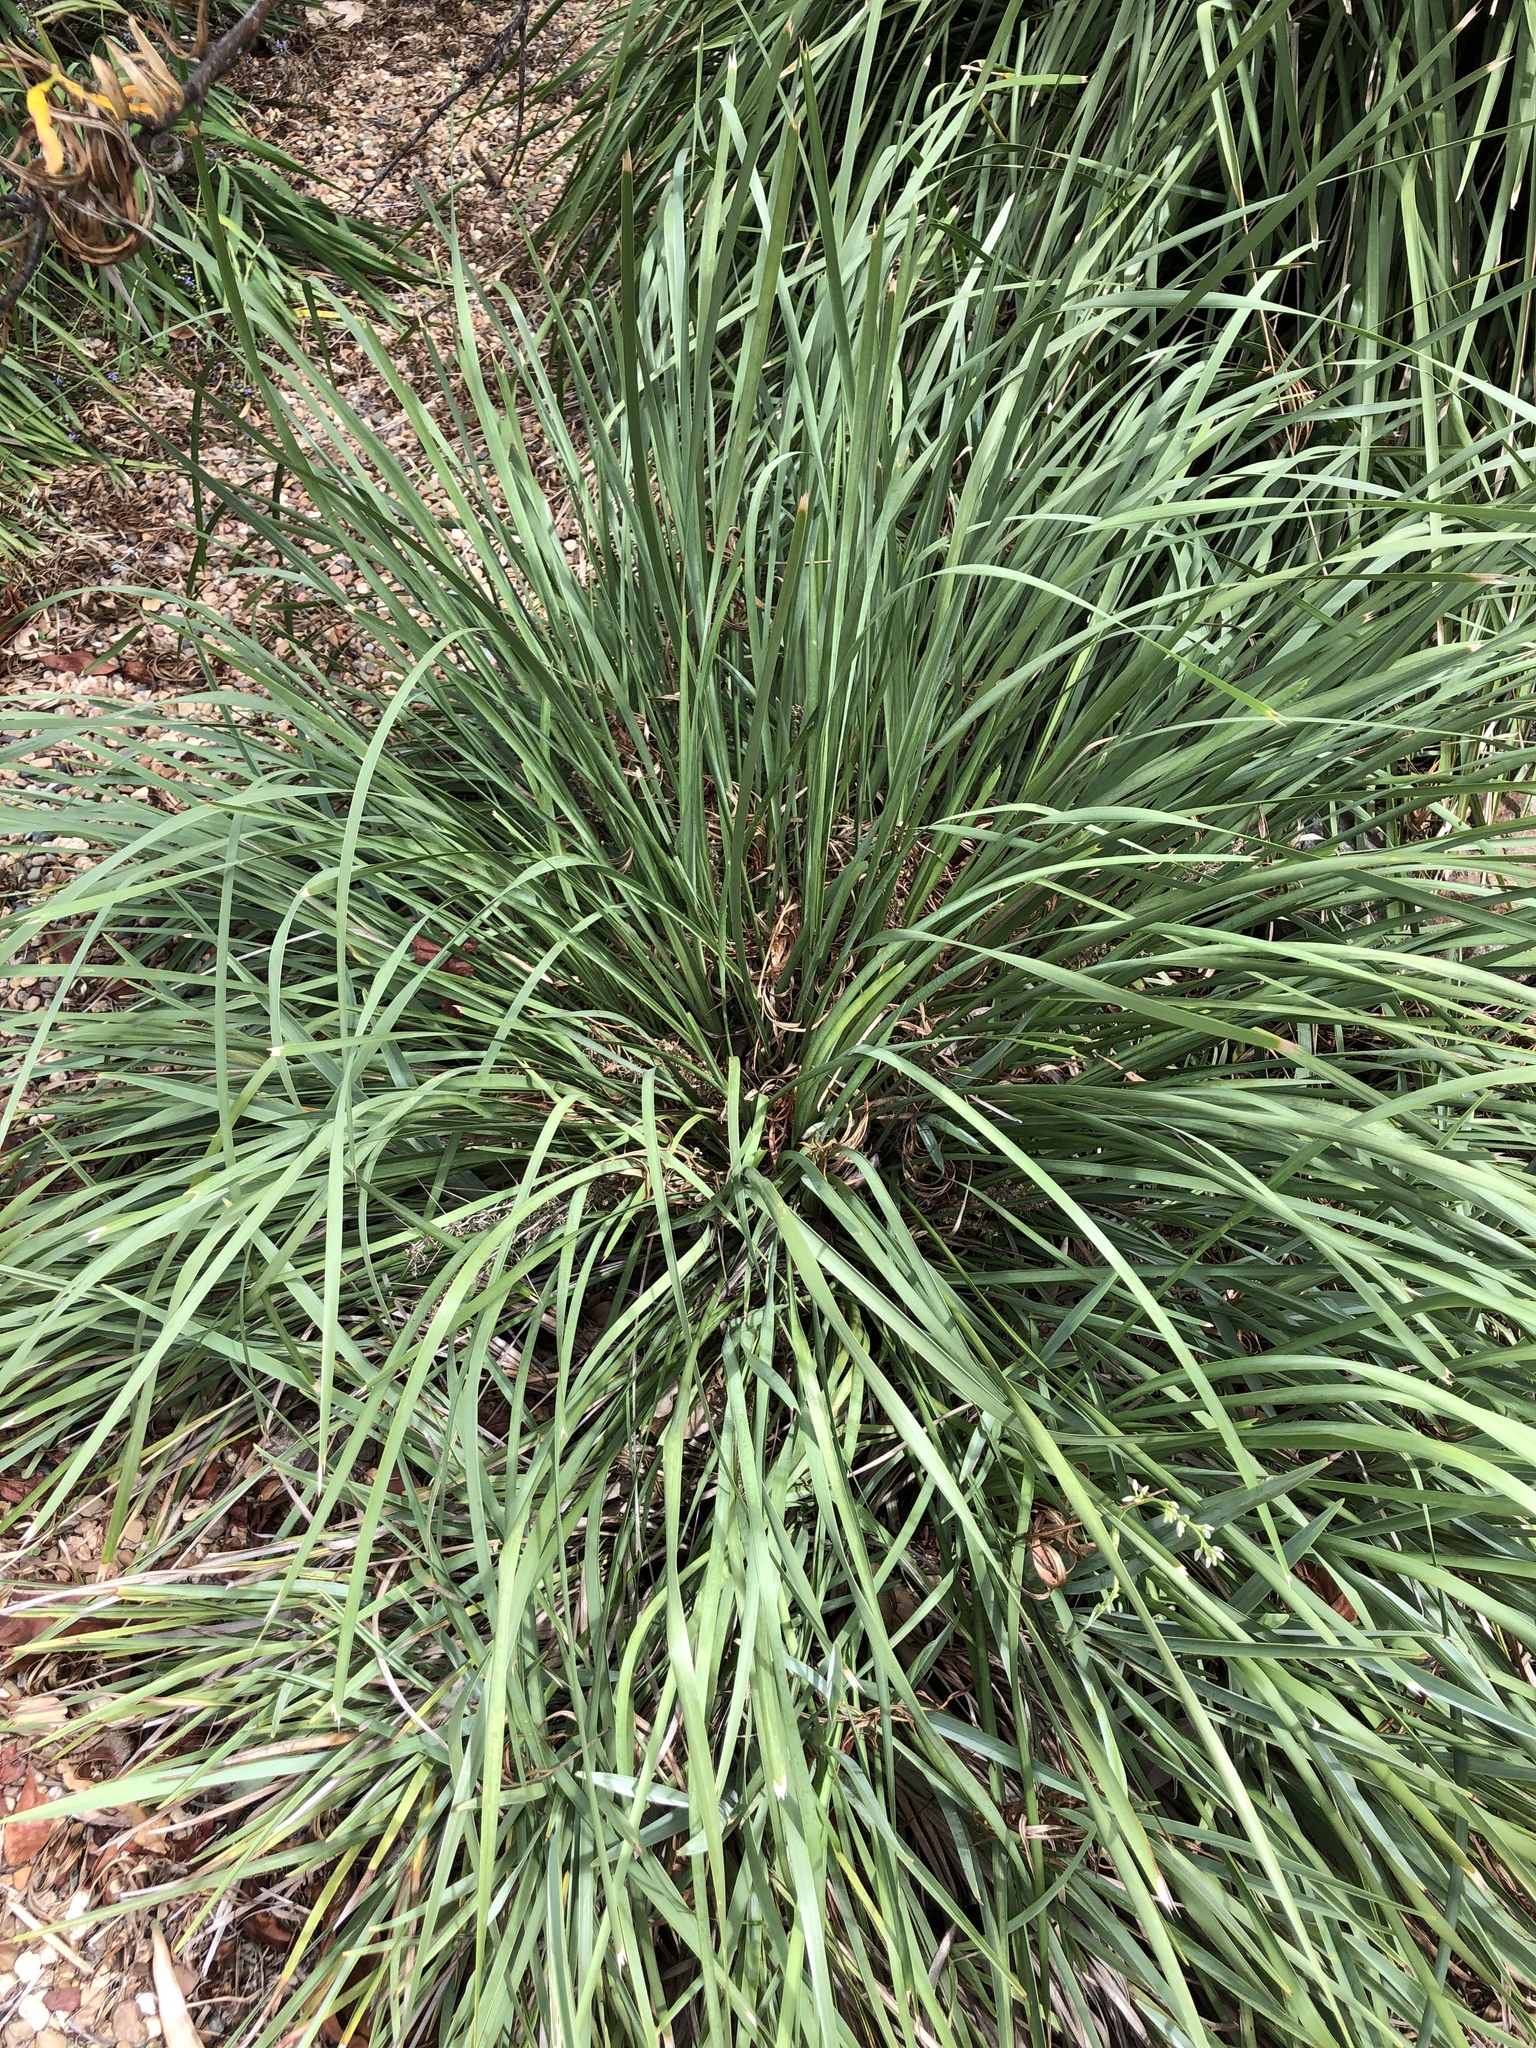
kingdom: Plantae
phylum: Tracheophyta
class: Liliopsida
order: Asparagales
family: Asparagaceae
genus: Lomandra
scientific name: Lomandra longifolia
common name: Longleaf mat-rush
